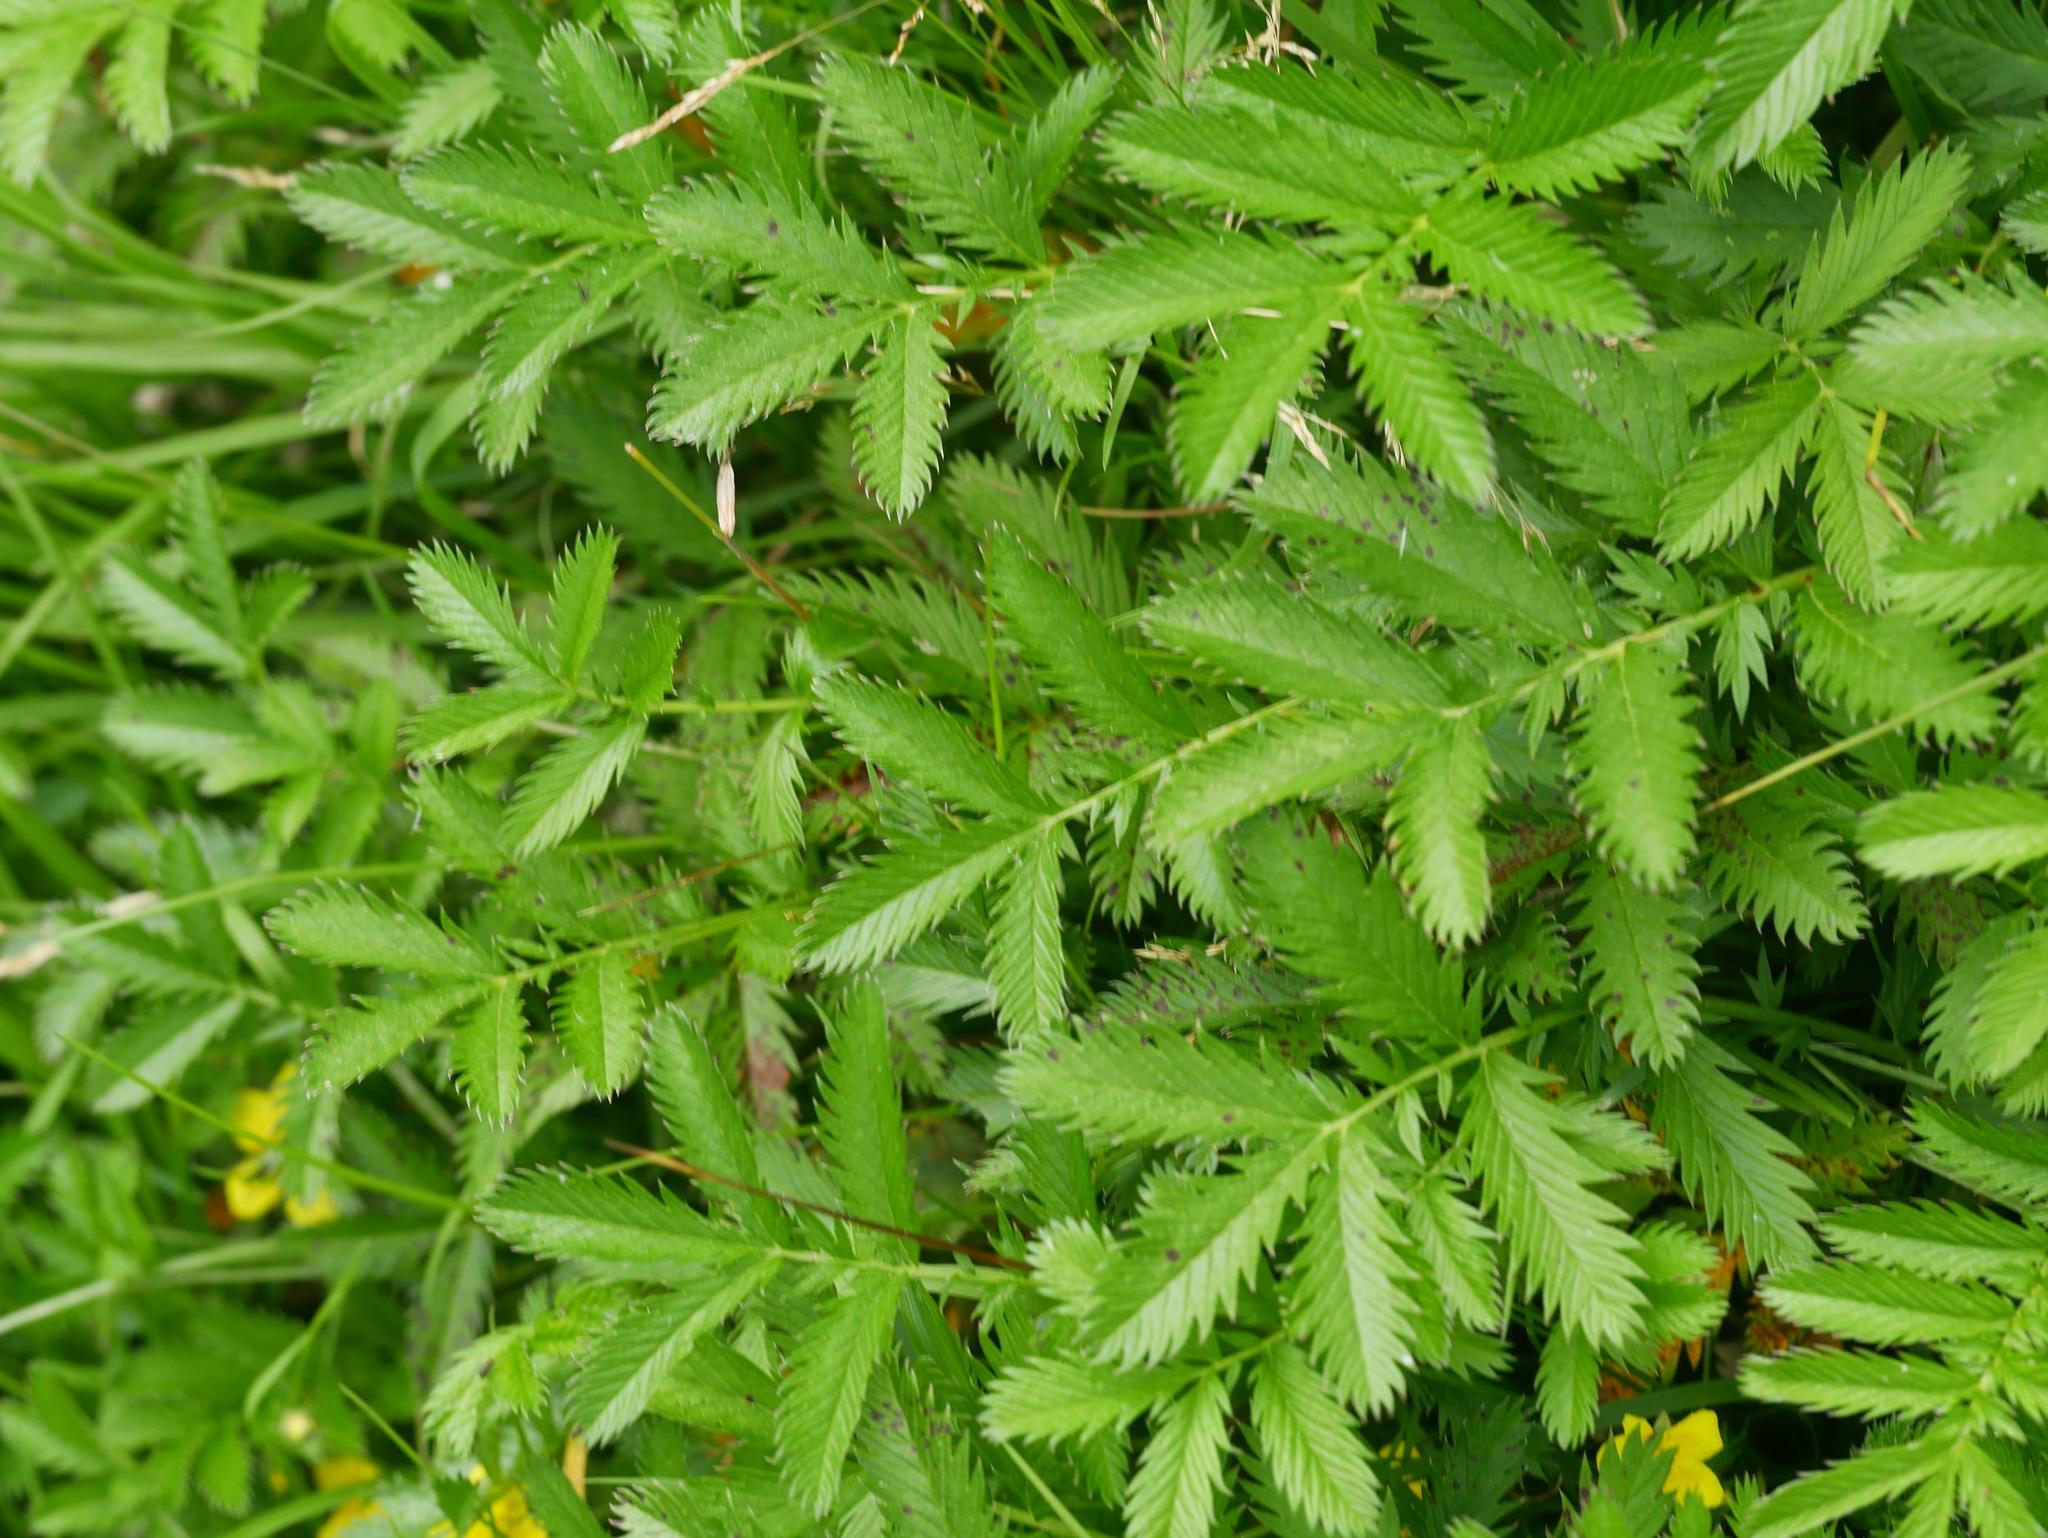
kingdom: Plantae
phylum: Tracheophyta
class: Magnoliopsida
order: Rosales
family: Rosaceae
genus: Argentina
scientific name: Argentina anserina
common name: Common silverweed
